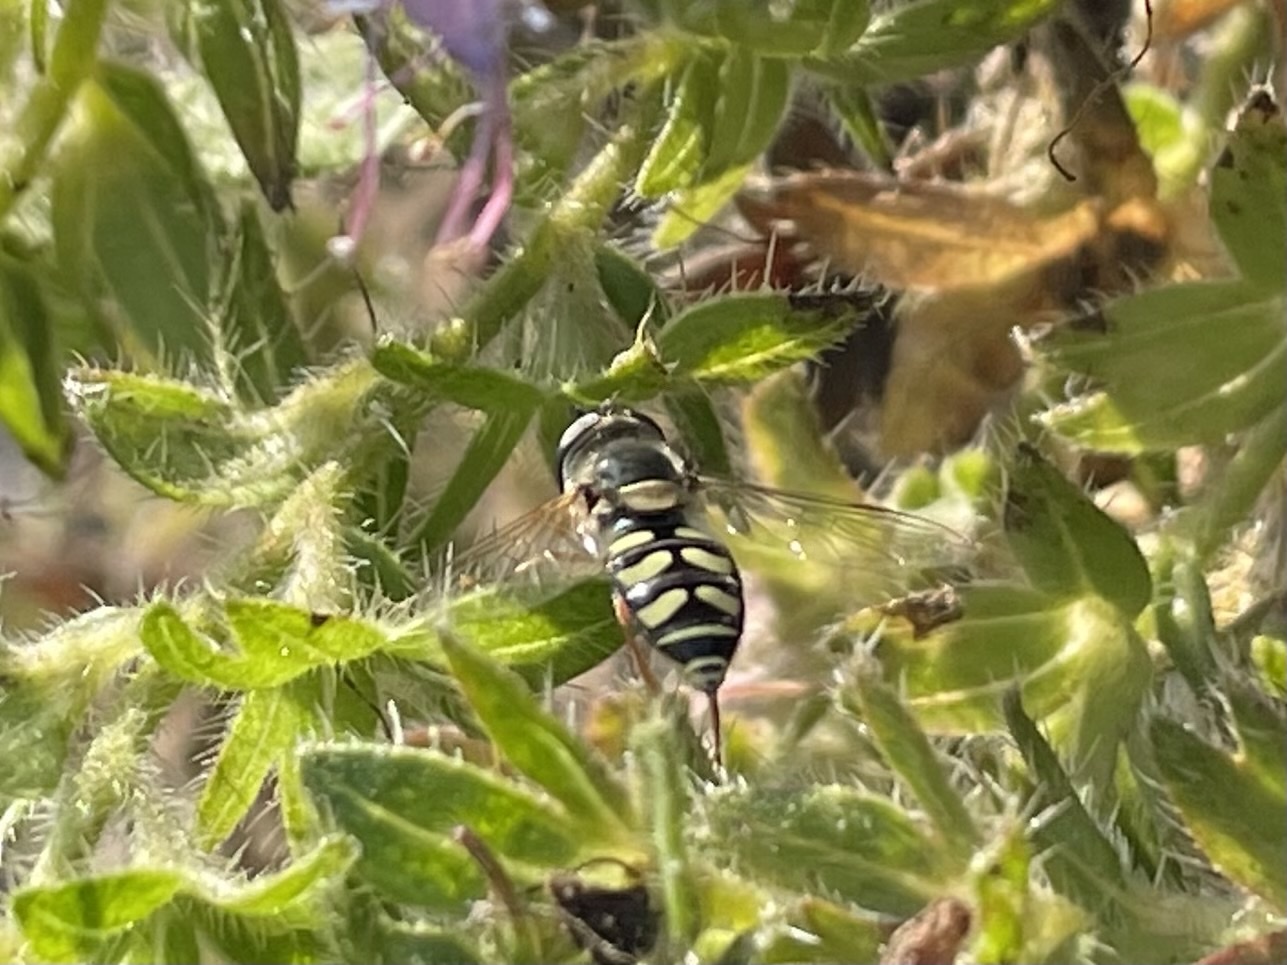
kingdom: Animalia
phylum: Arthropoda
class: Insecta
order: Diptera
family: Syrphidae
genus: Eupeodes
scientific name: Eupeodes volucris
